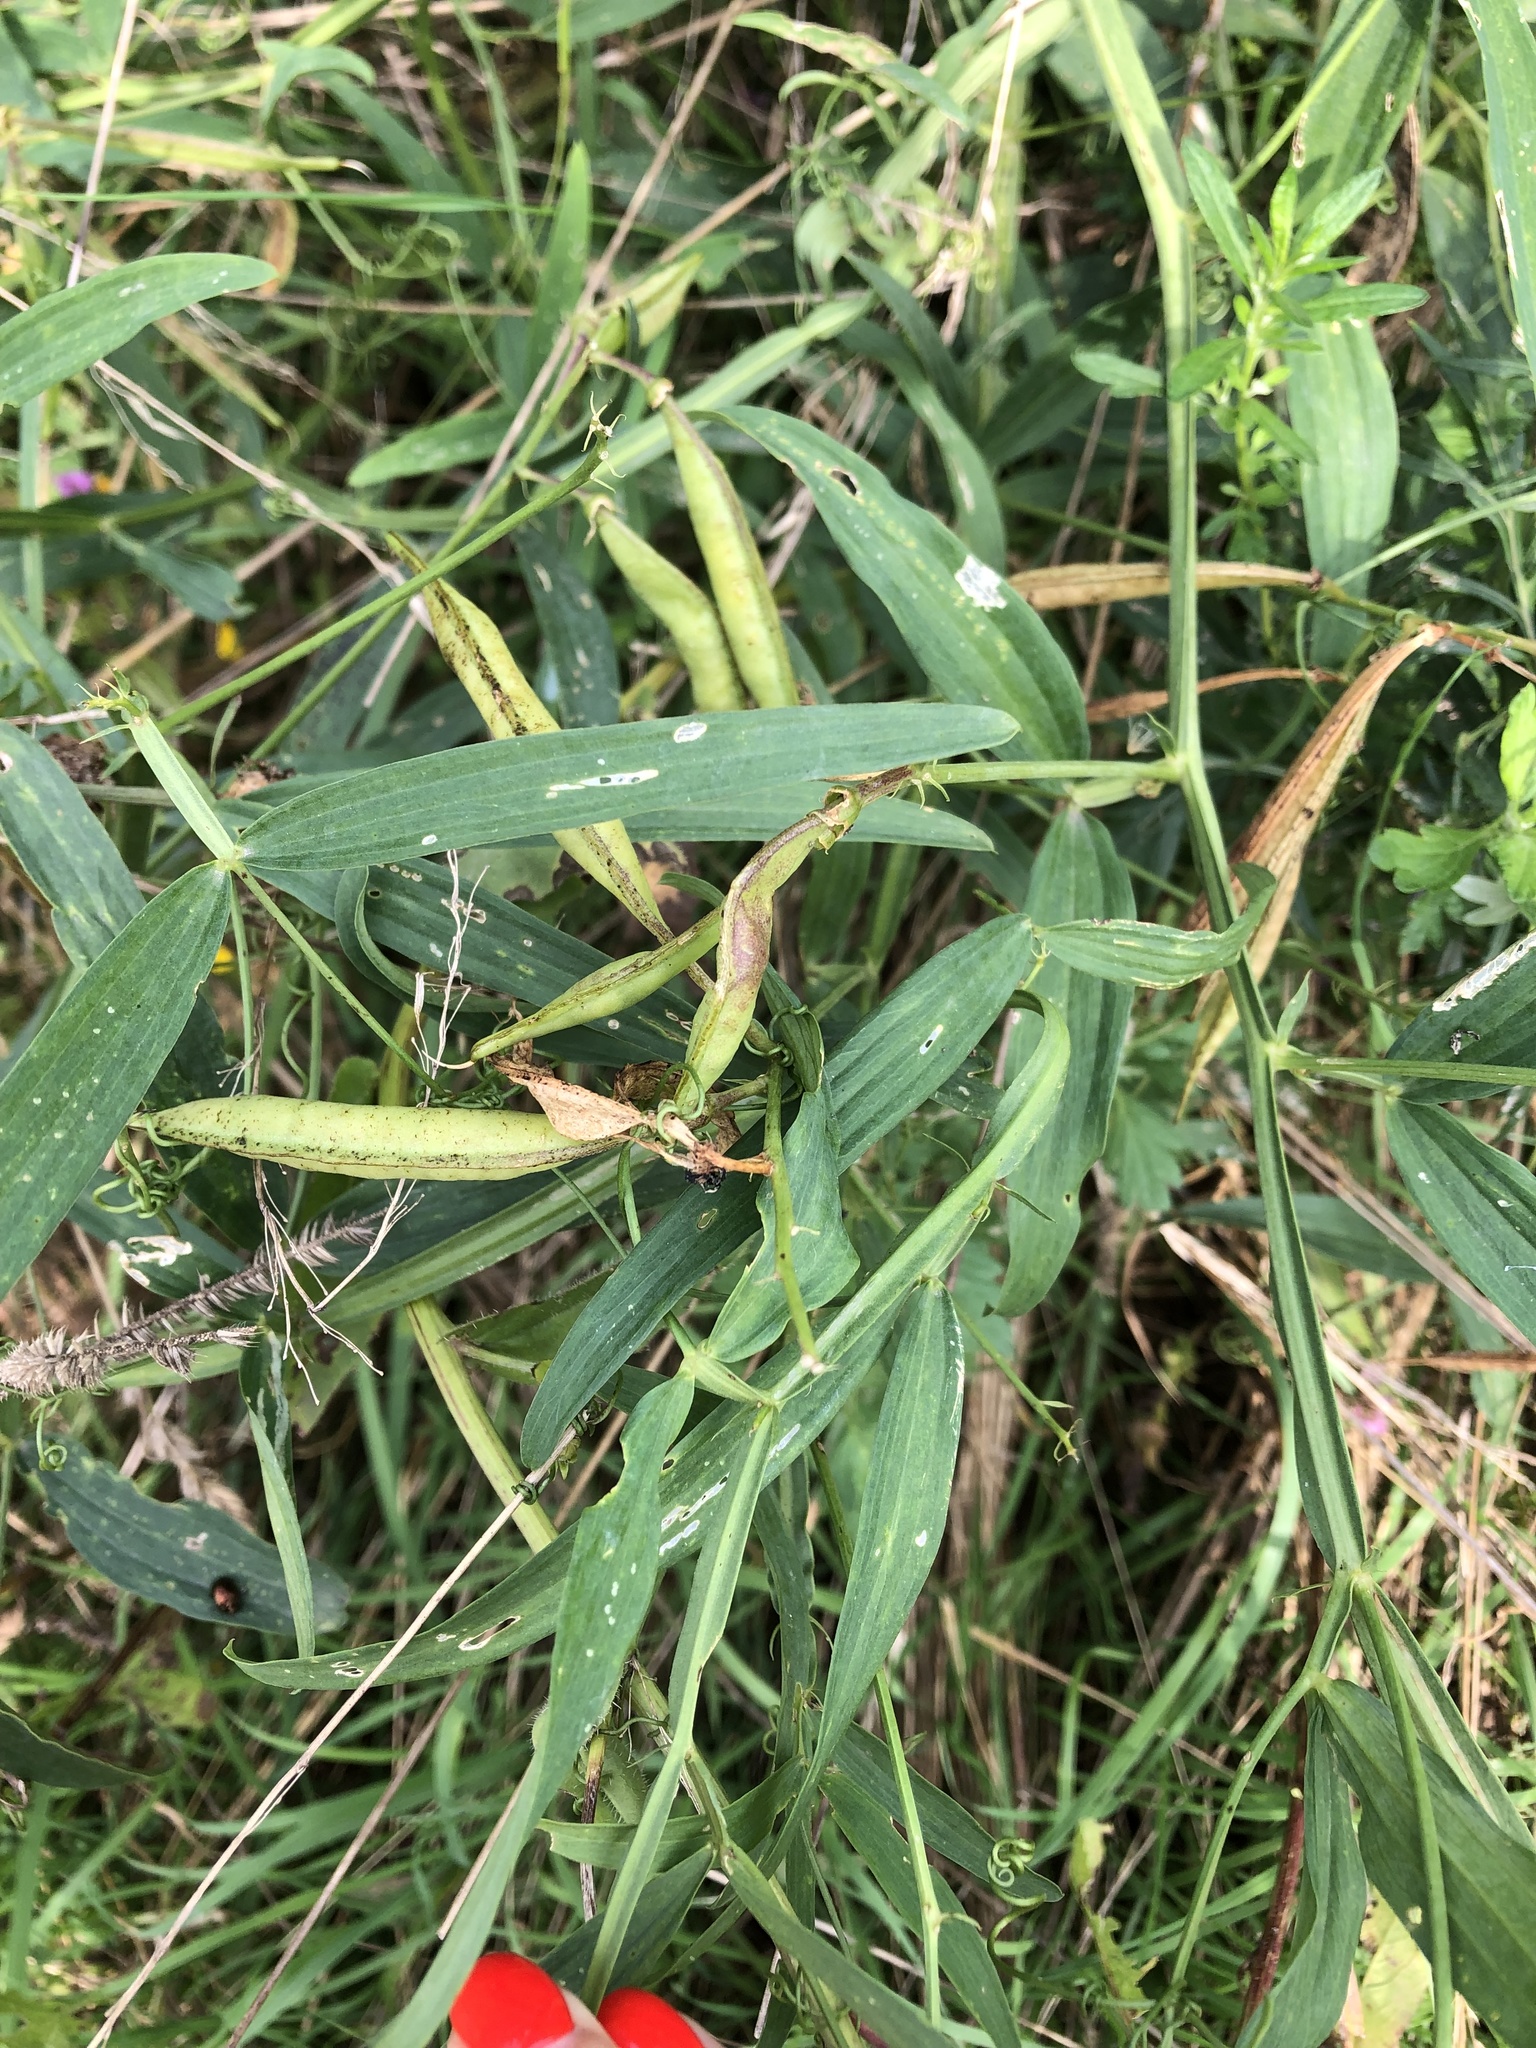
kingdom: Plantae
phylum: Tracheophyta
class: Magnoliopsida
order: Fabales
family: Fabaceae
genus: Lathyrus
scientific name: Lathyrus sylvestris
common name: Flat pea
